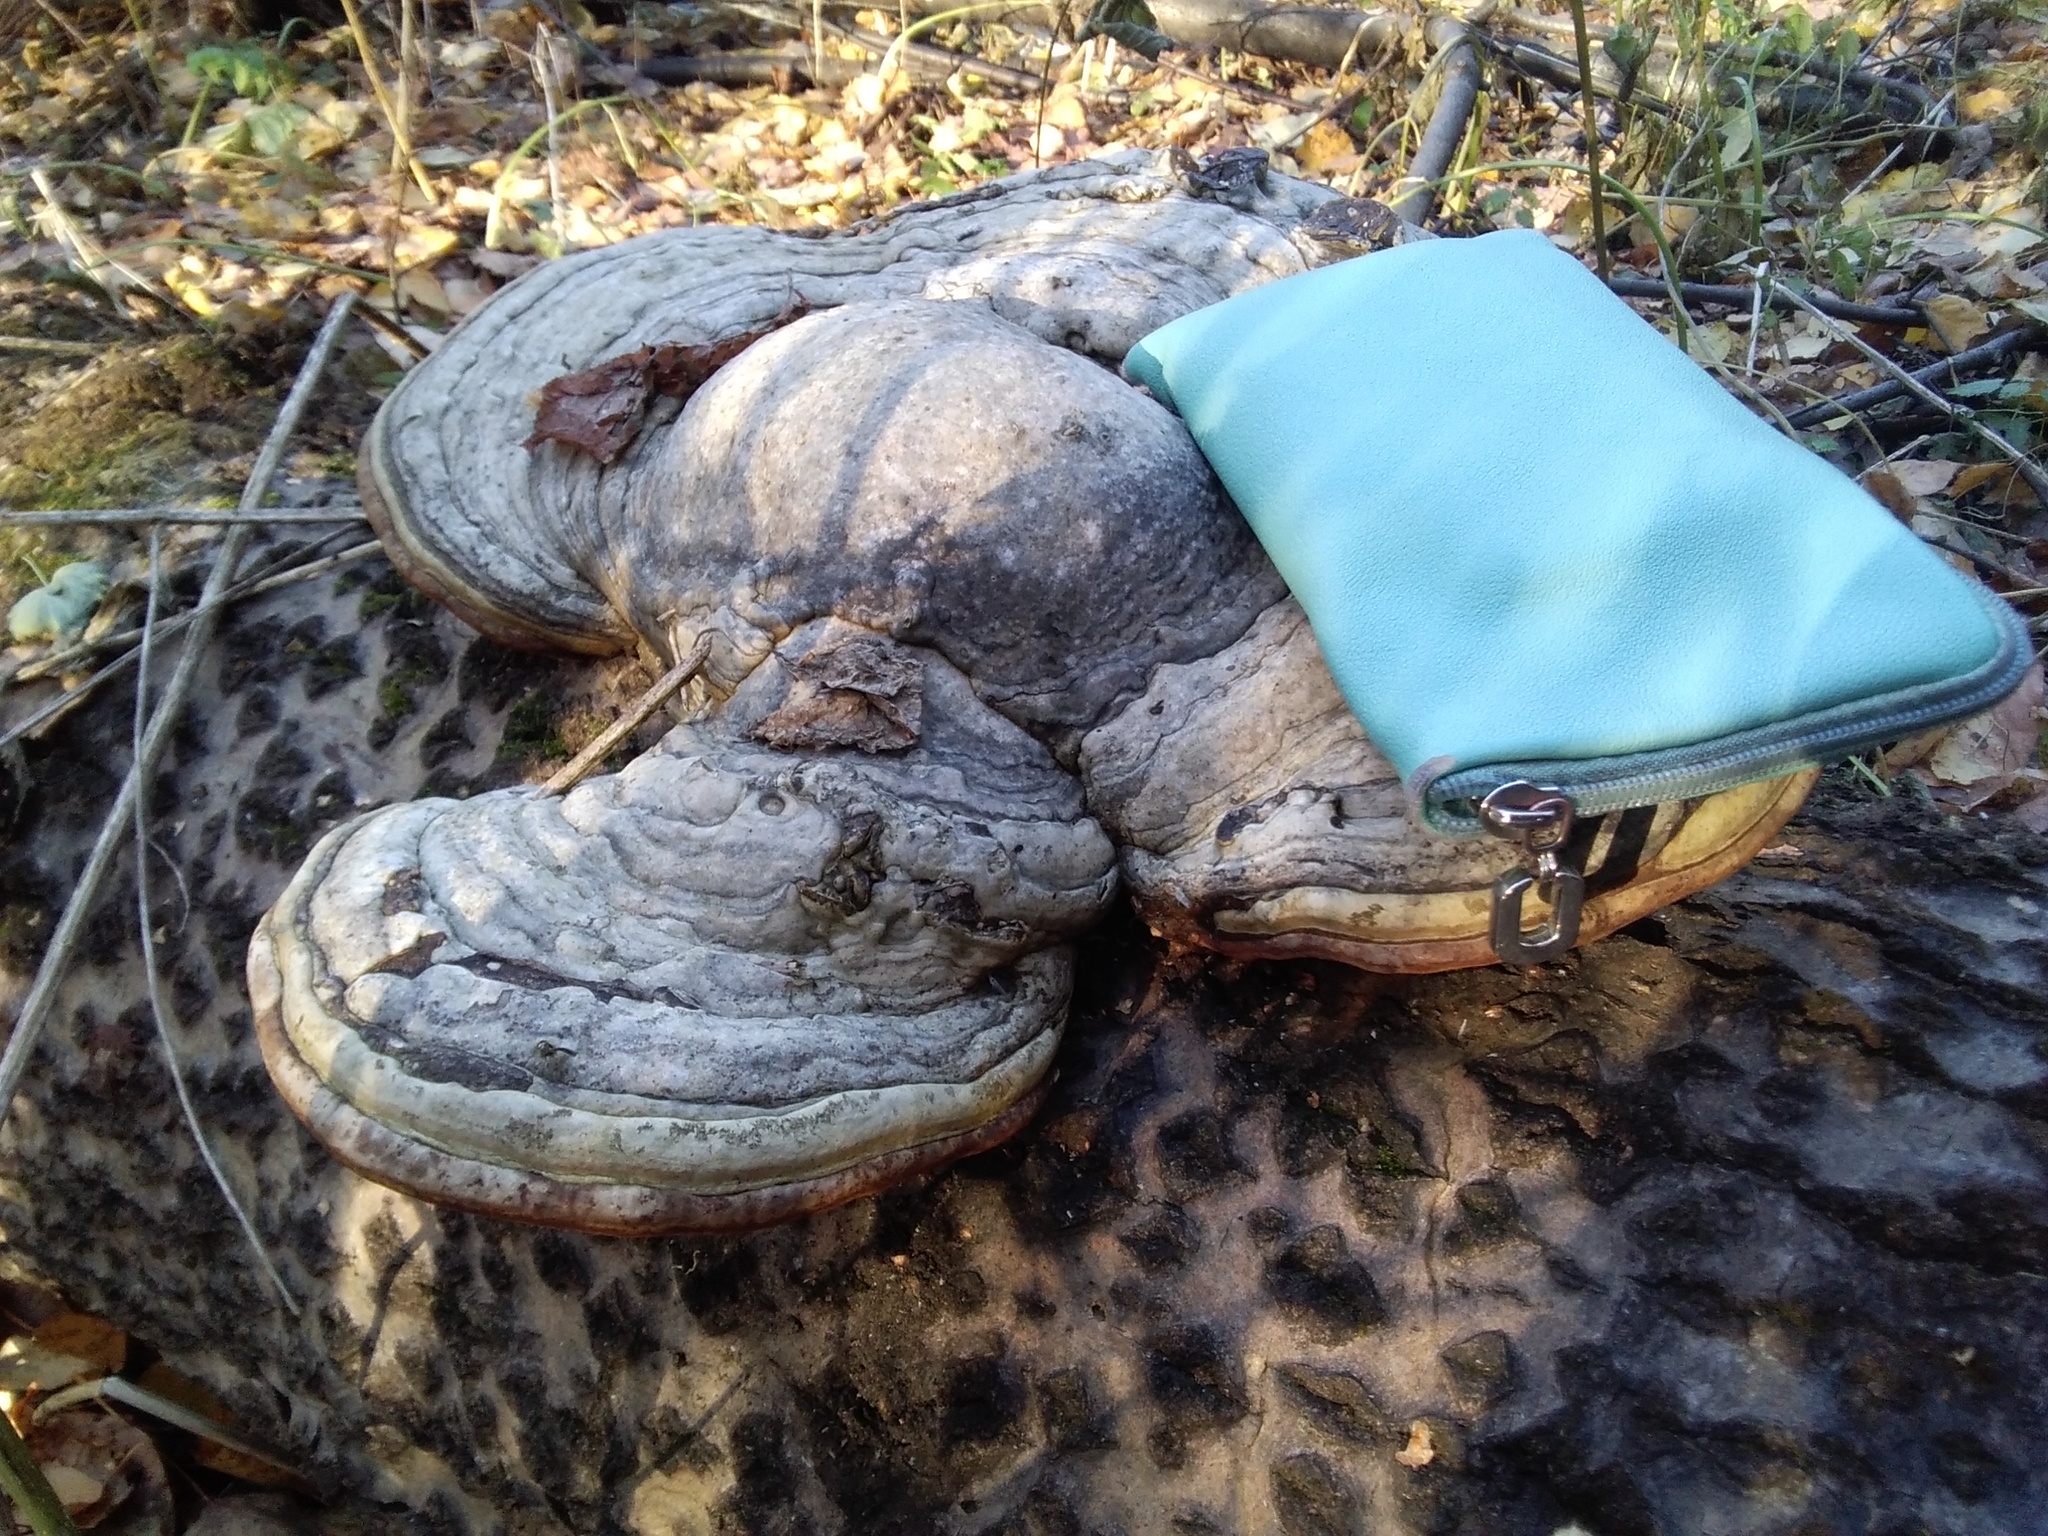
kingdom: Fungi
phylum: Basidiomycota
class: Agaricomycetes
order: Polyporales
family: Polyporaceae
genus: Fomes
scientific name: Fomes fomentarius
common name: Hoof fungus
